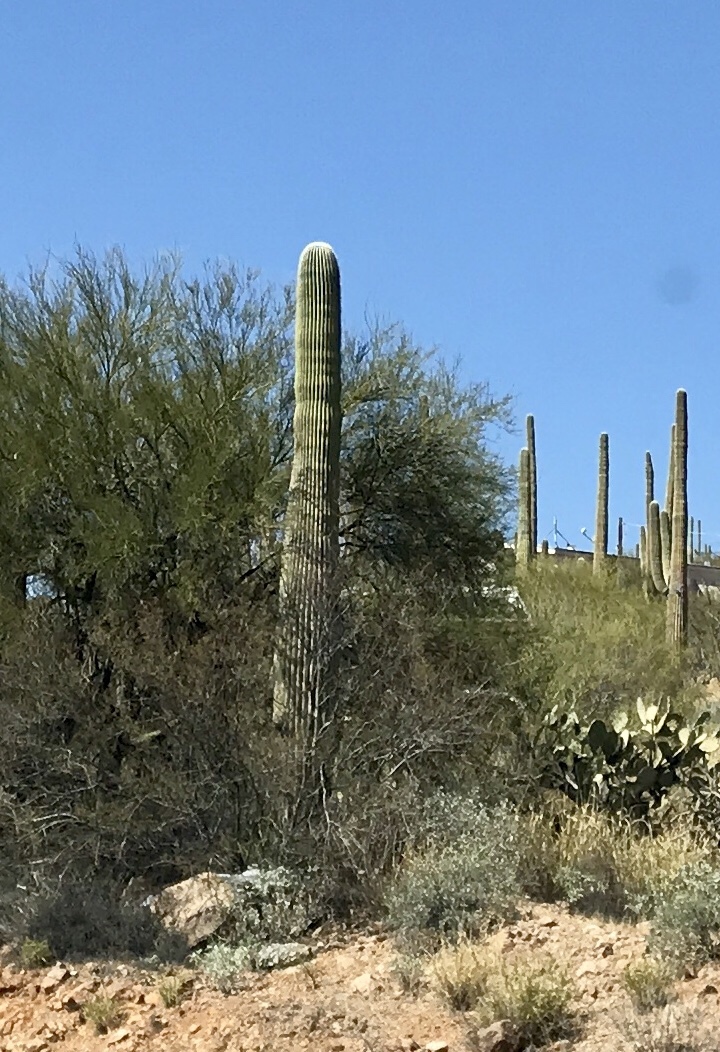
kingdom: Plantae
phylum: Tracheophyta
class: Magnoliopsida
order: Caryophyllales
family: Cactaceae
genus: Carnegiea
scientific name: Carnegiea gigantea
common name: Saguaro
